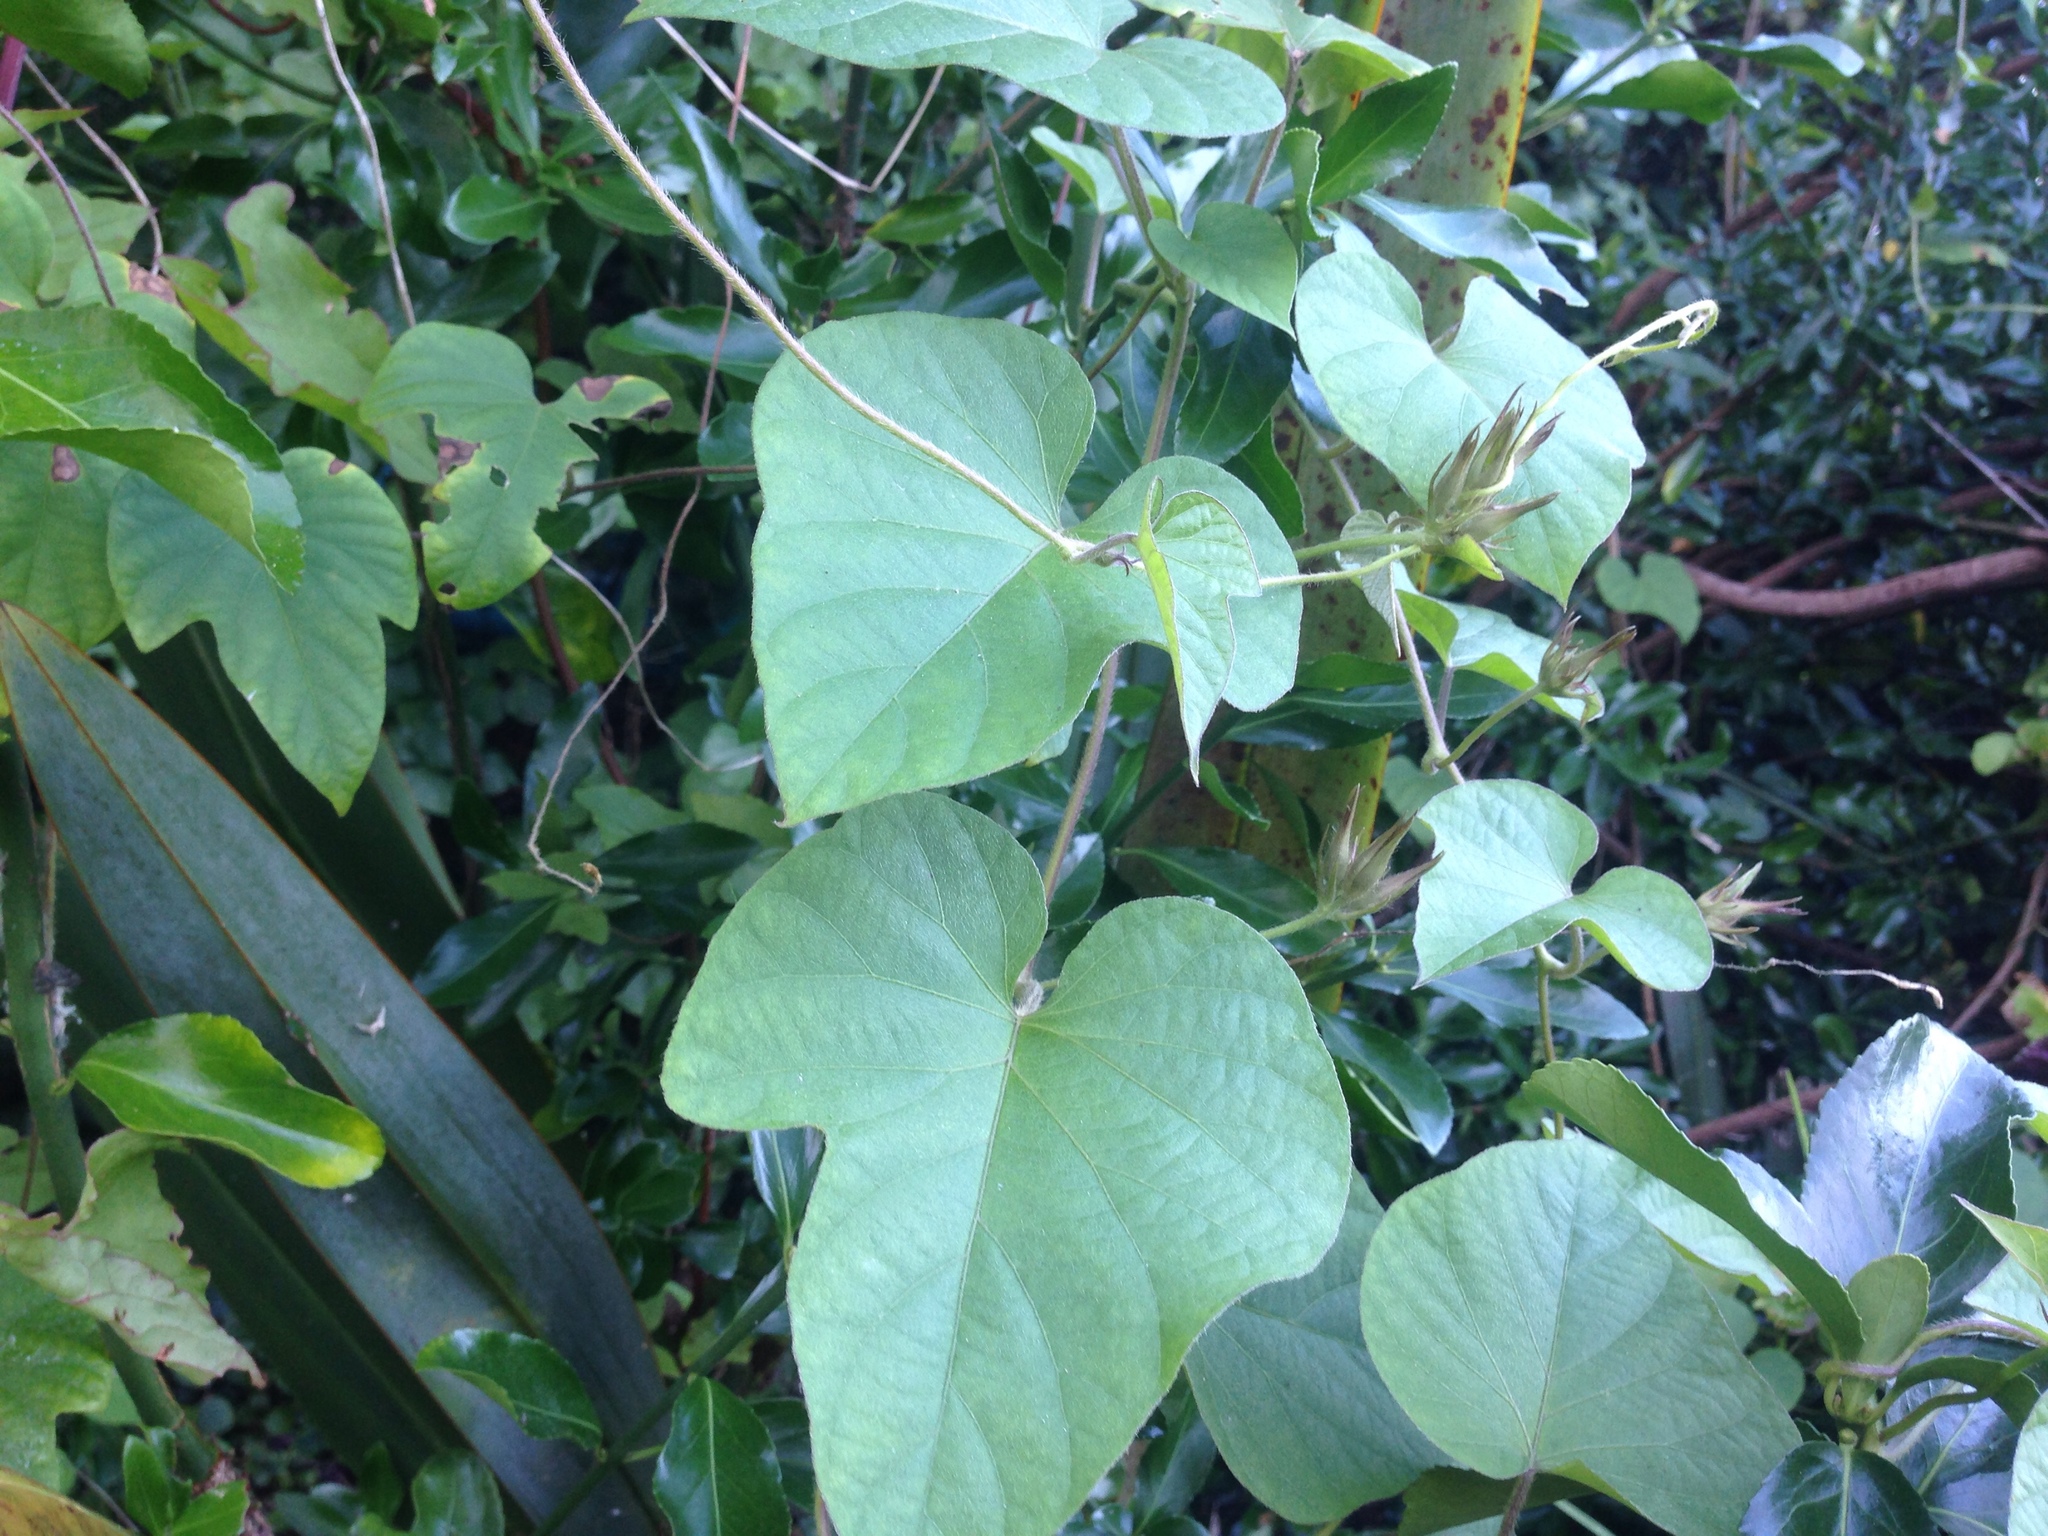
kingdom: Plantae
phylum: Tracheophyta
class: Magnoliopsida
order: Solanales
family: Convolvulaceae
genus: Ipomoea
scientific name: Ipomoea indica
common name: Blue dawnflower
